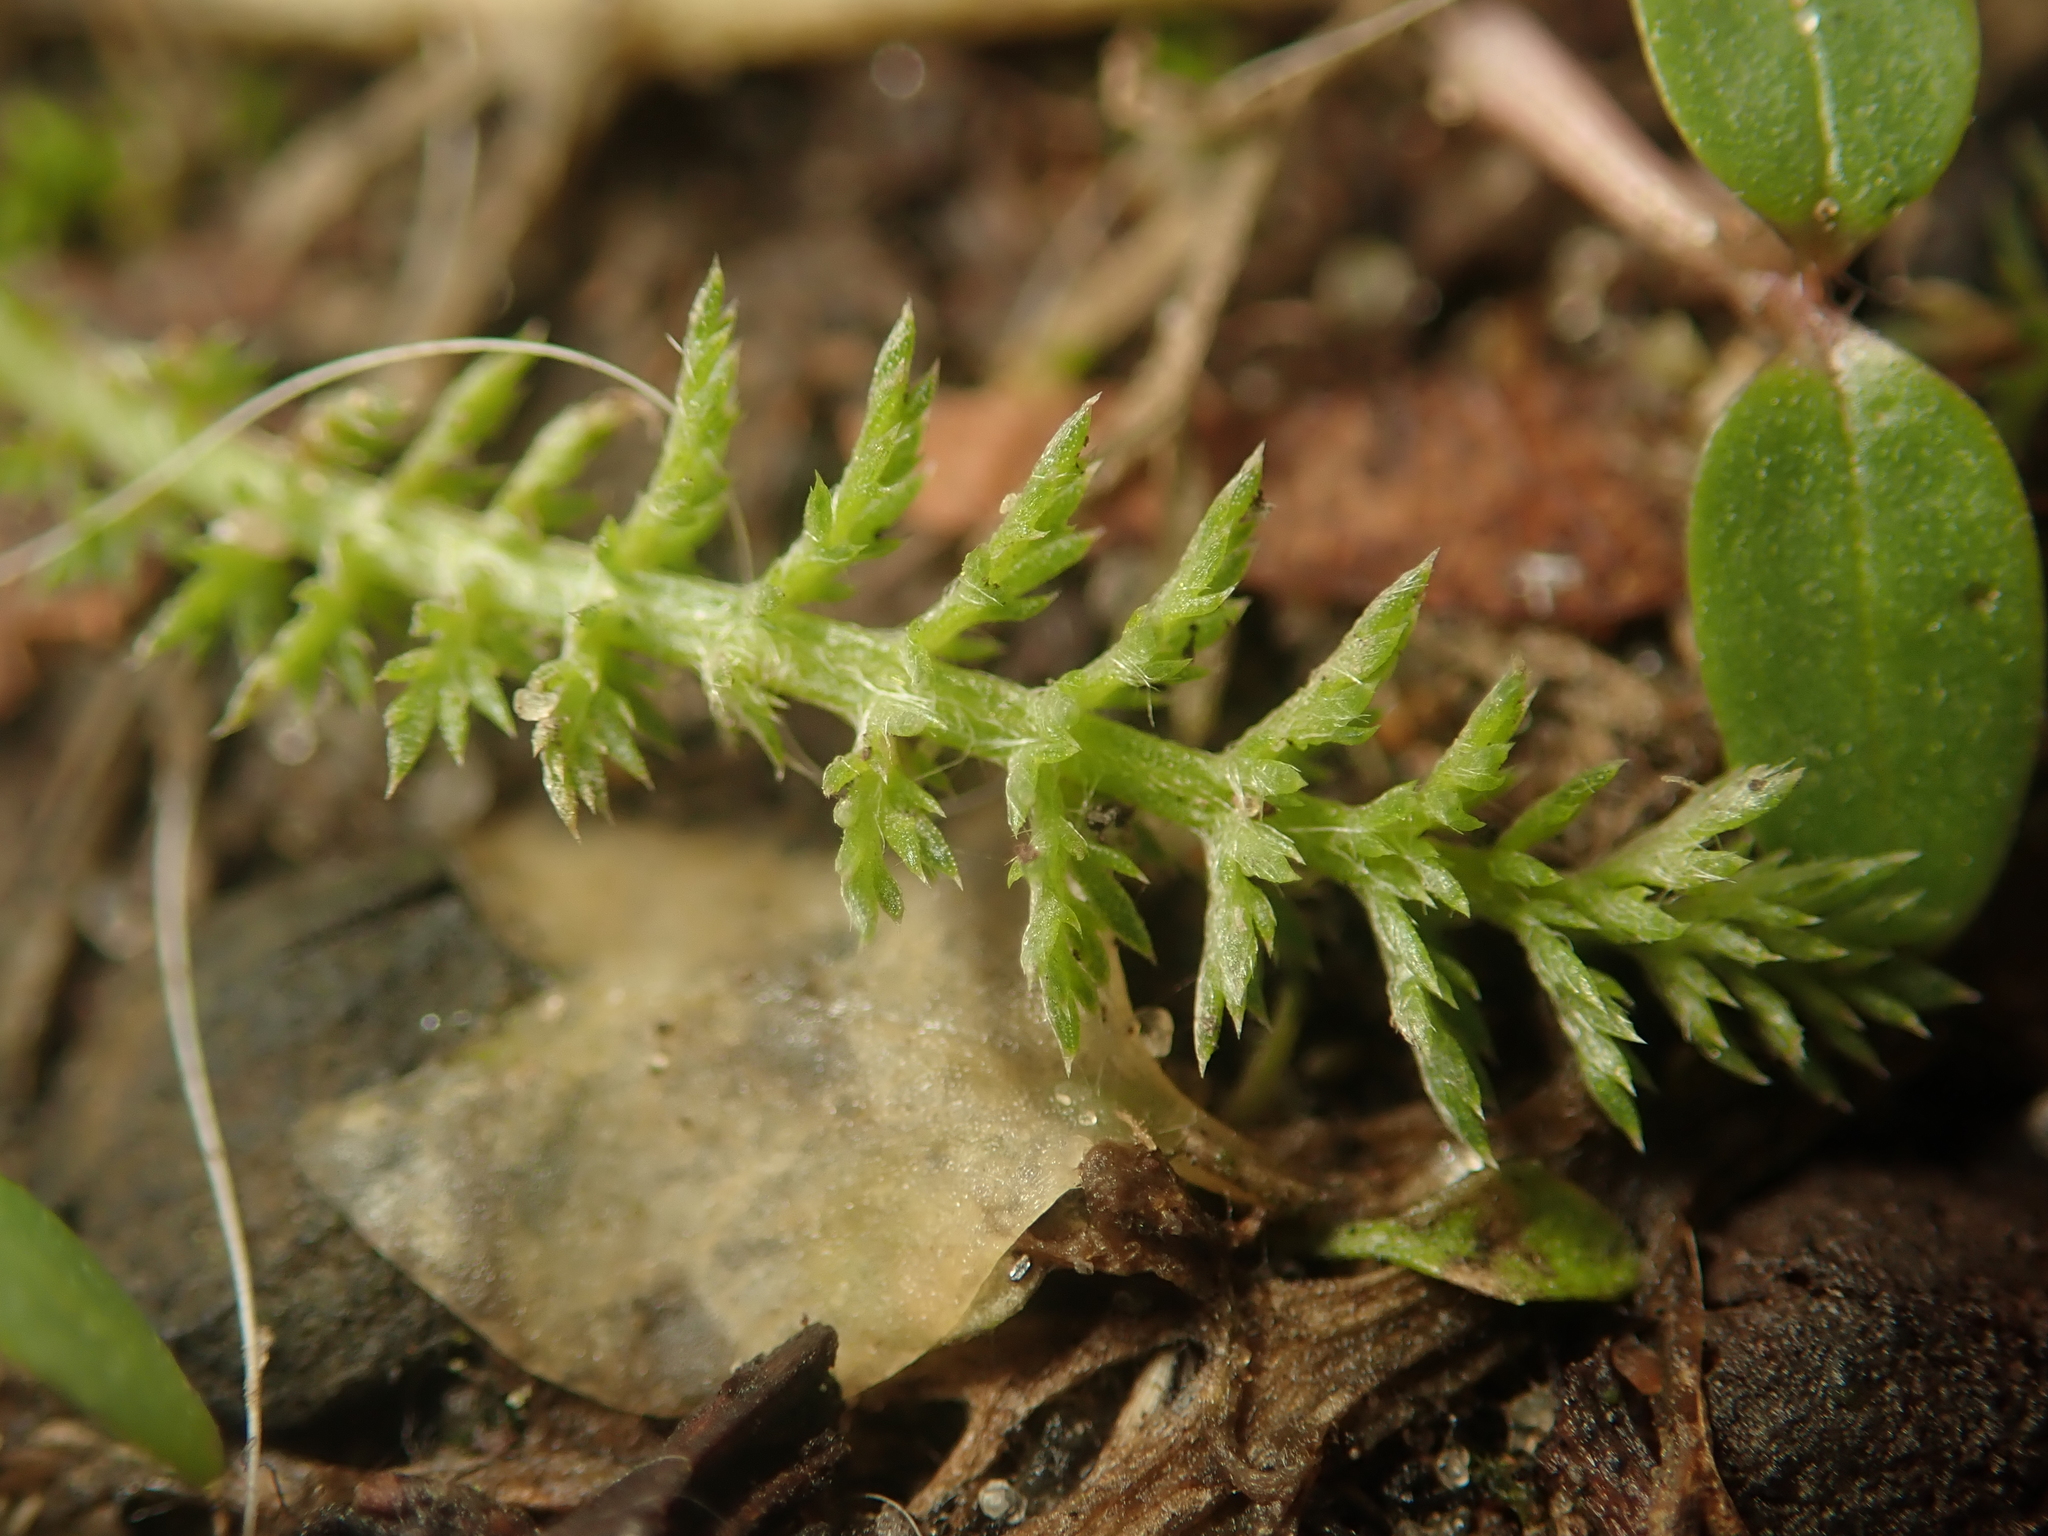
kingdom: Plantae
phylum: Tracheophyta
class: Magnoliopsida
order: Asterales
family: Asteraceae
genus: Achillea
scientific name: Achillea millefolium
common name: Yarrow
